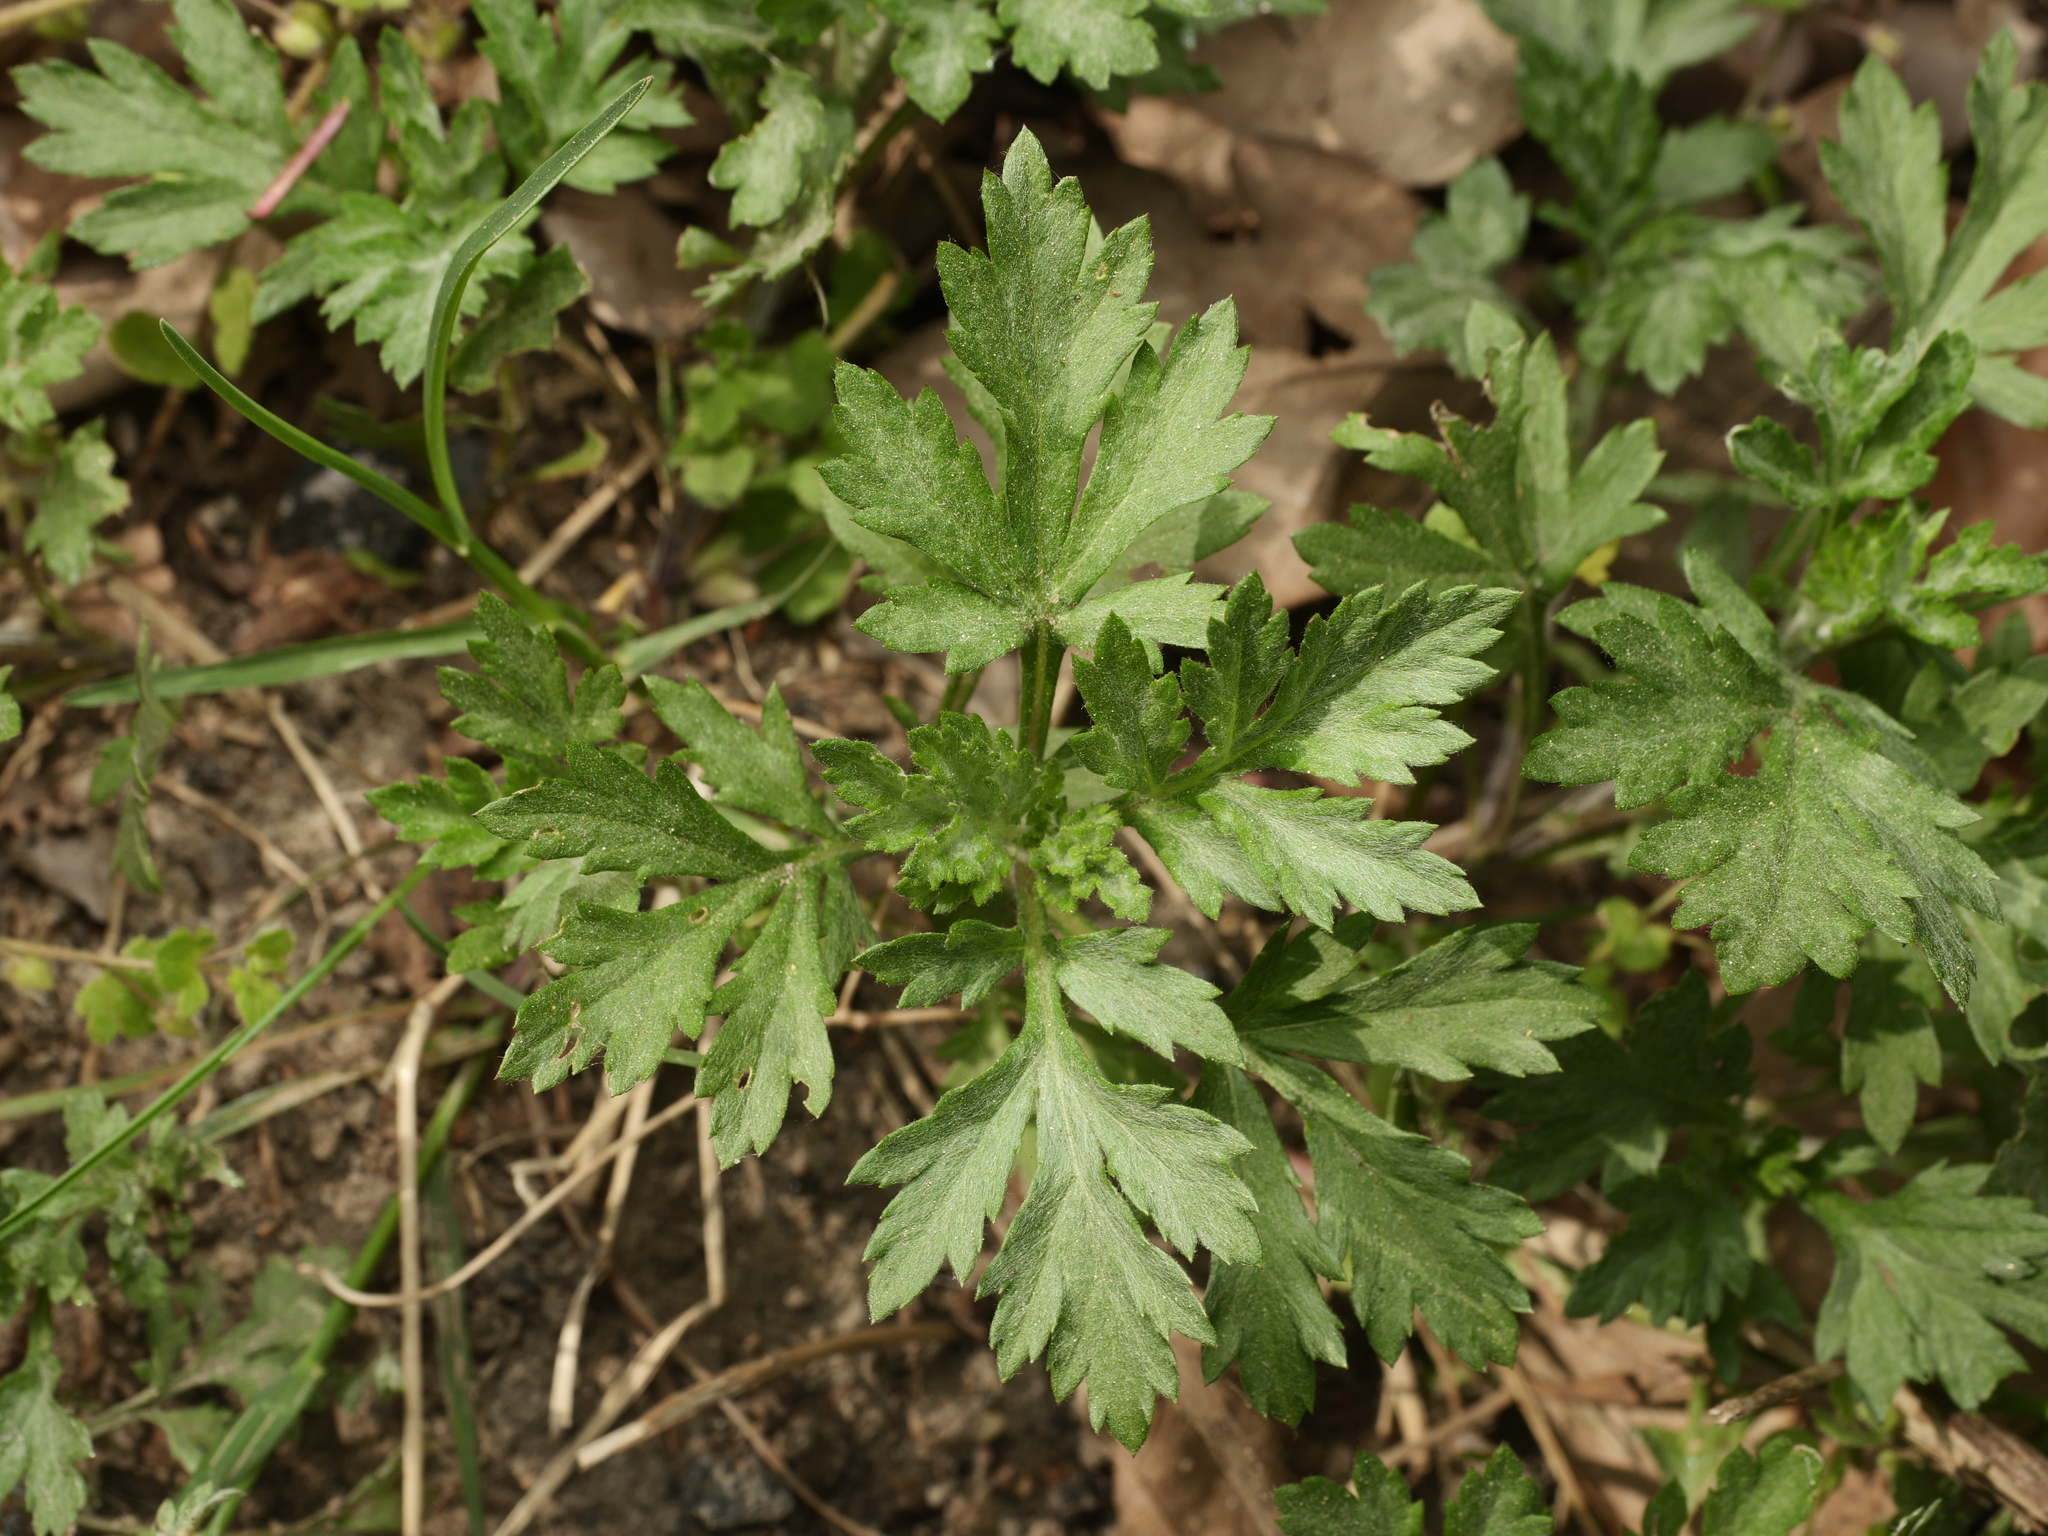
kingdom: Plantae
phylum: Tracheophyta
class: Magnoliopsida
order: Asterales
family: Asteraceae
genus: Artemisia
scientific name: Artemisia vulgaris
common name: Mugwort
